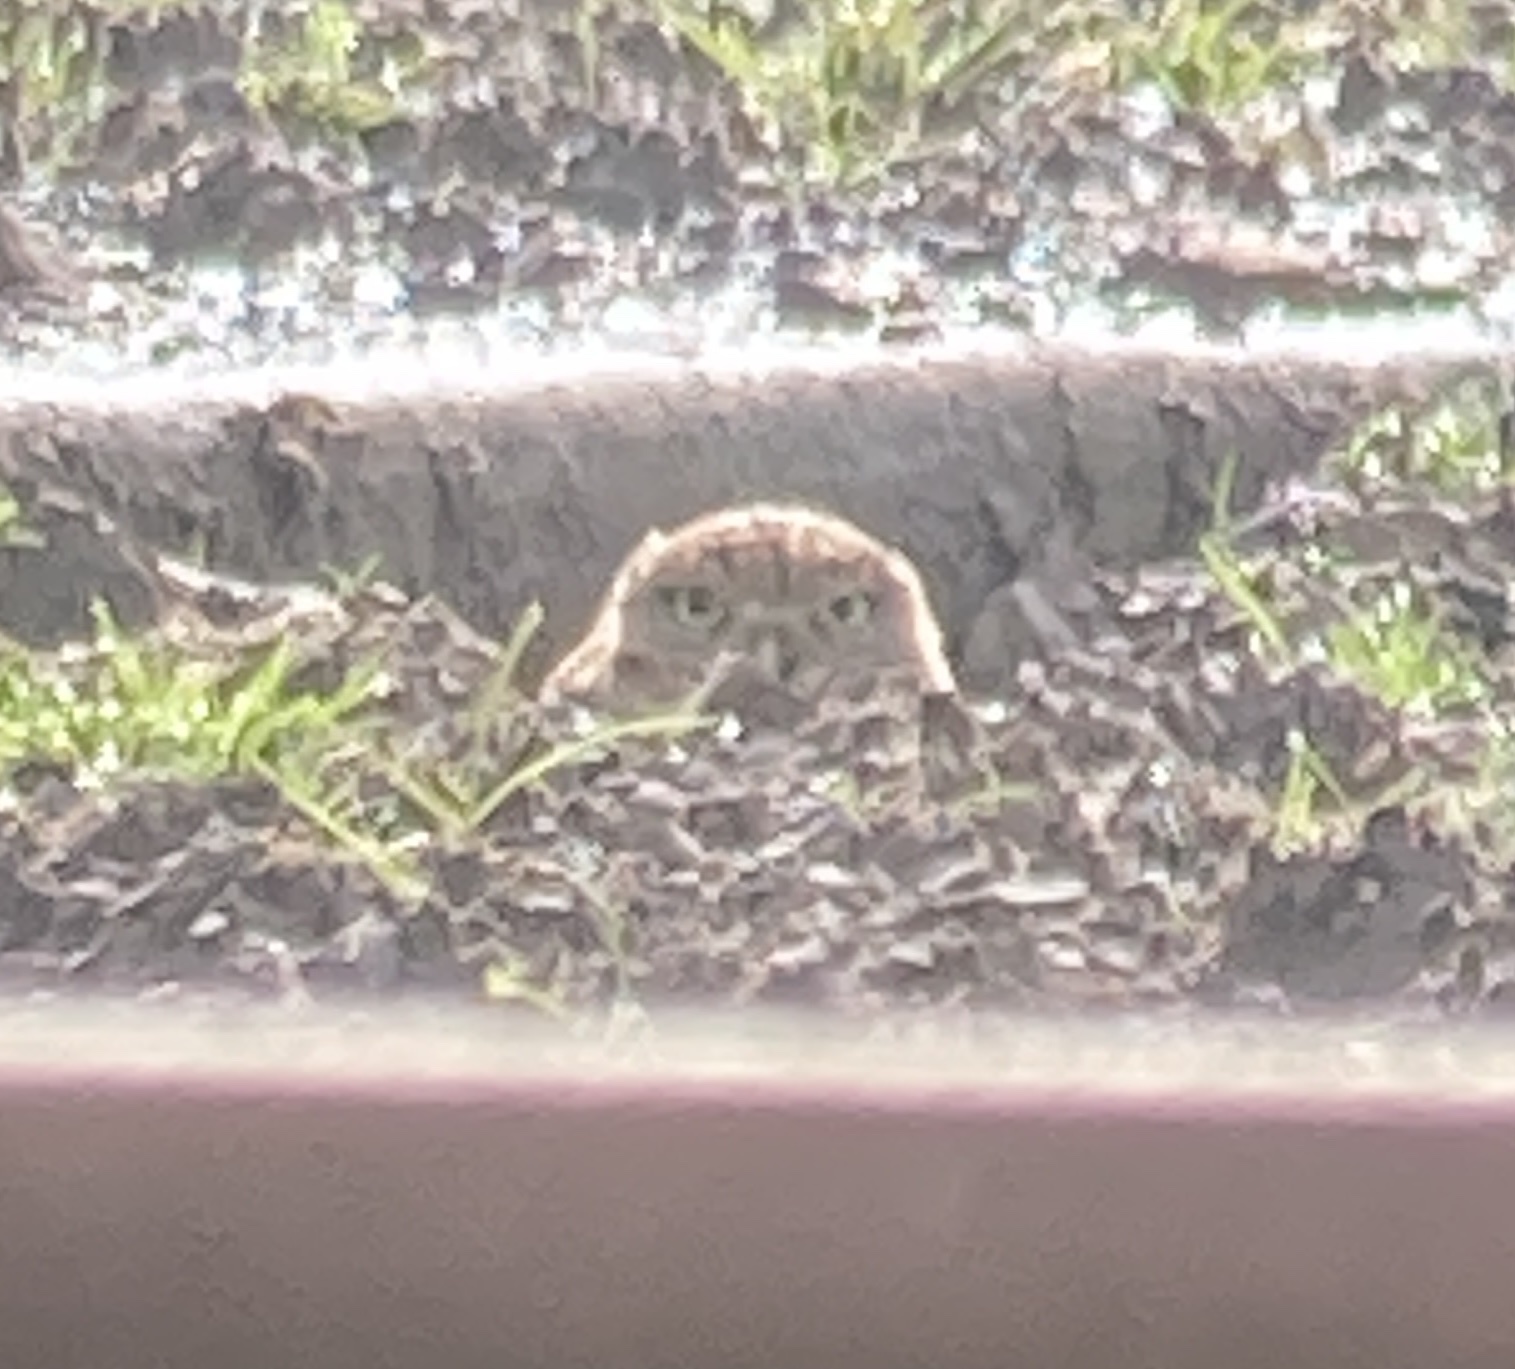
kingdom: Animalia
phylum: Chordata
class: Aves
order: Strigiformes
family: Strigidae
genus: Athene
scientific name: Athene cunicularia
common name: Burrowing owl
